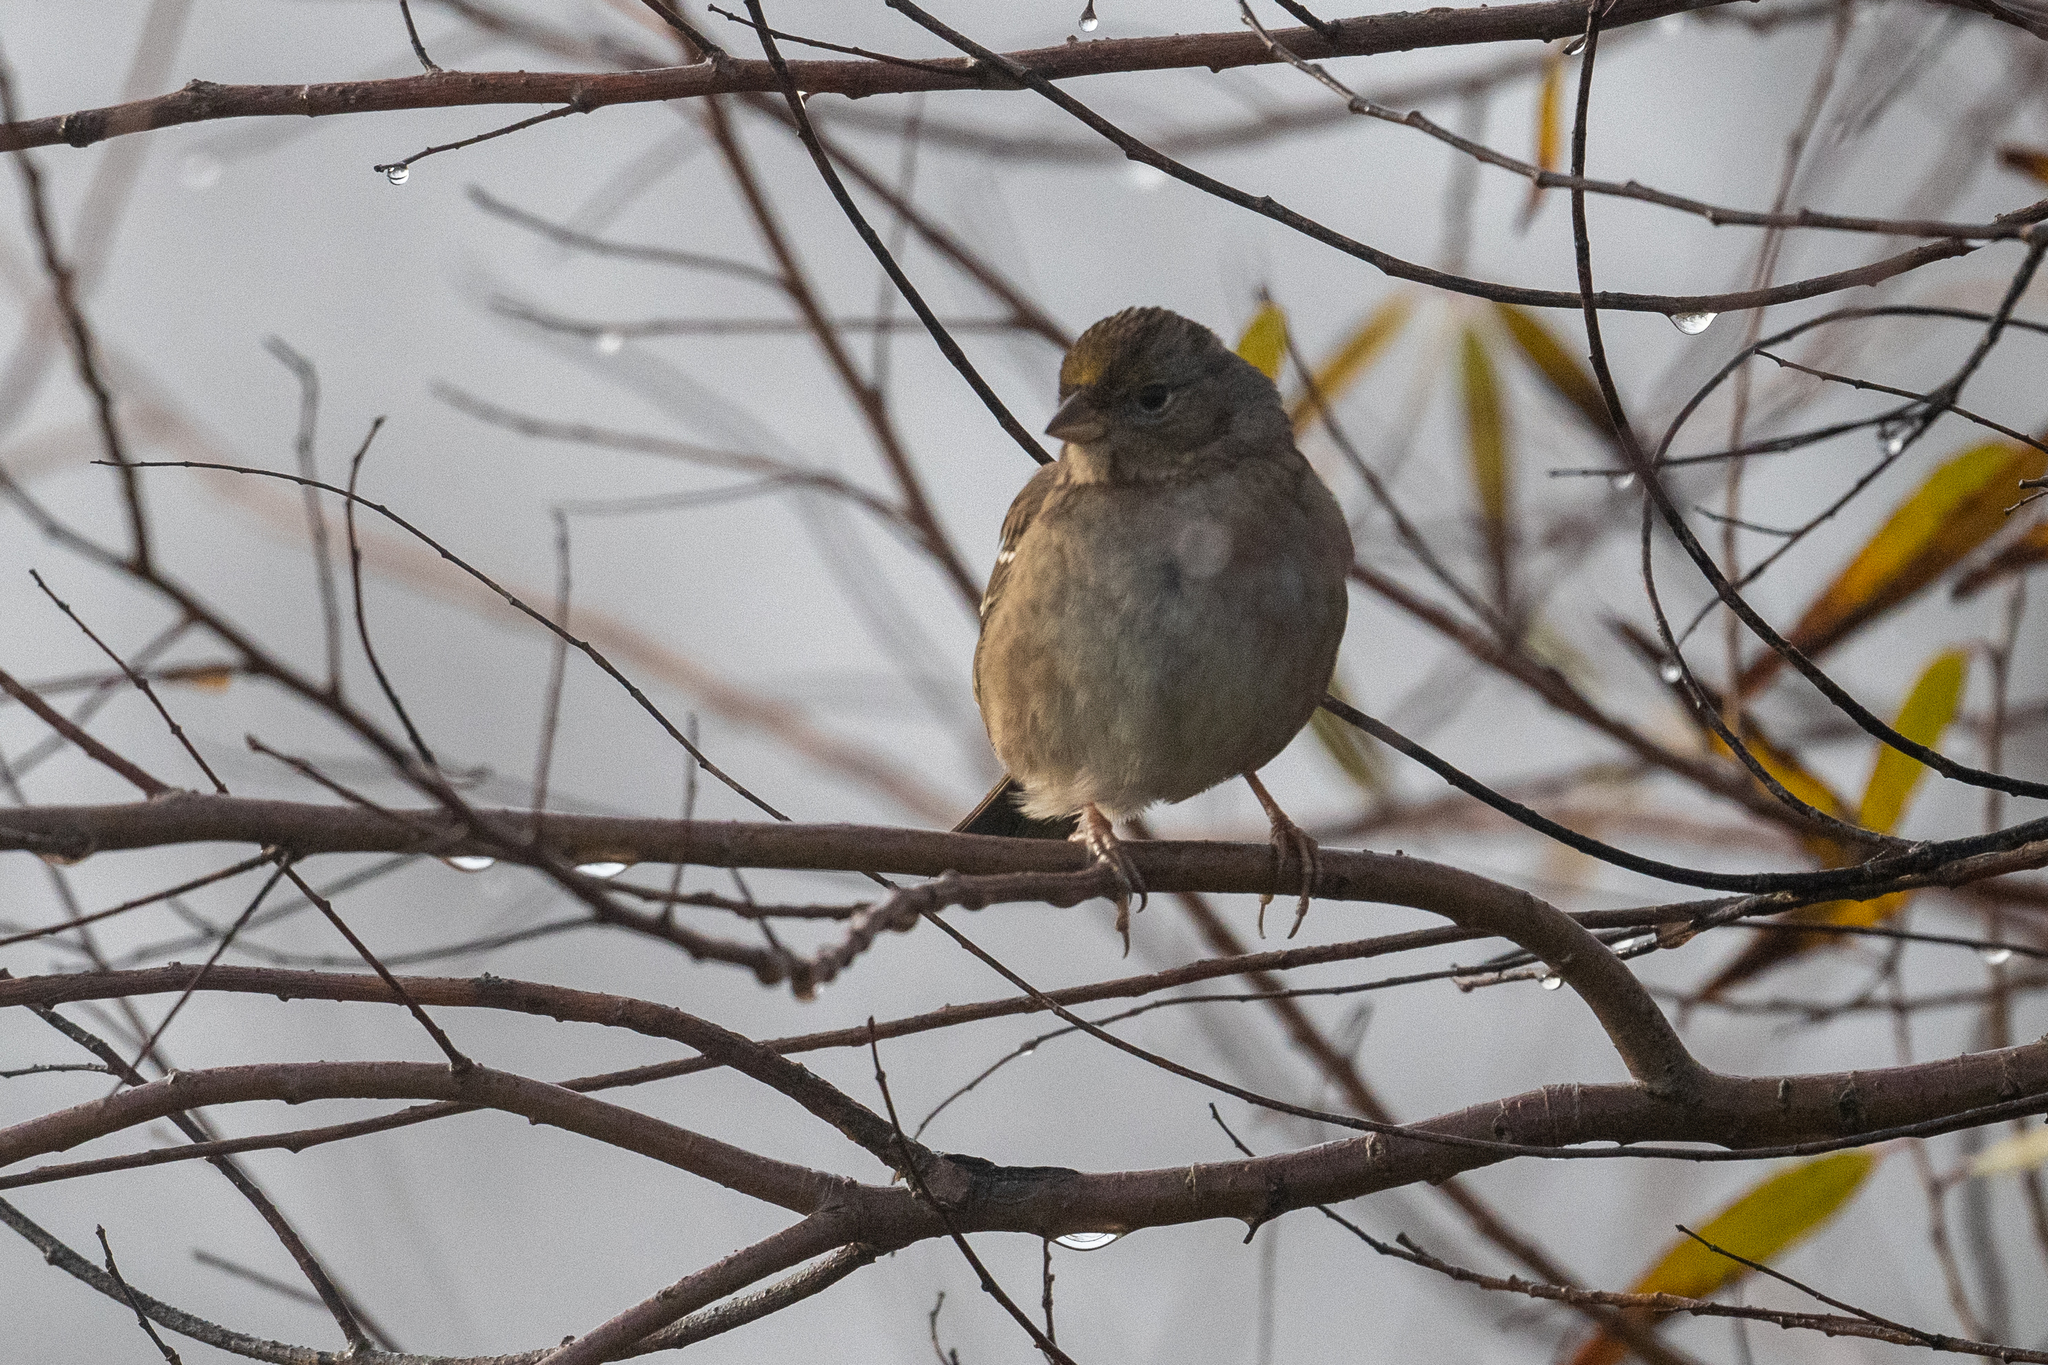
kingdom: Animalia
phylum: Chordata
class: Aves
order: Passeriformes
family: Passerellidae
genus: Zonotrichia
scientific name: Zonotrichia atricapilla
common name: Golden-crowned sparrow
